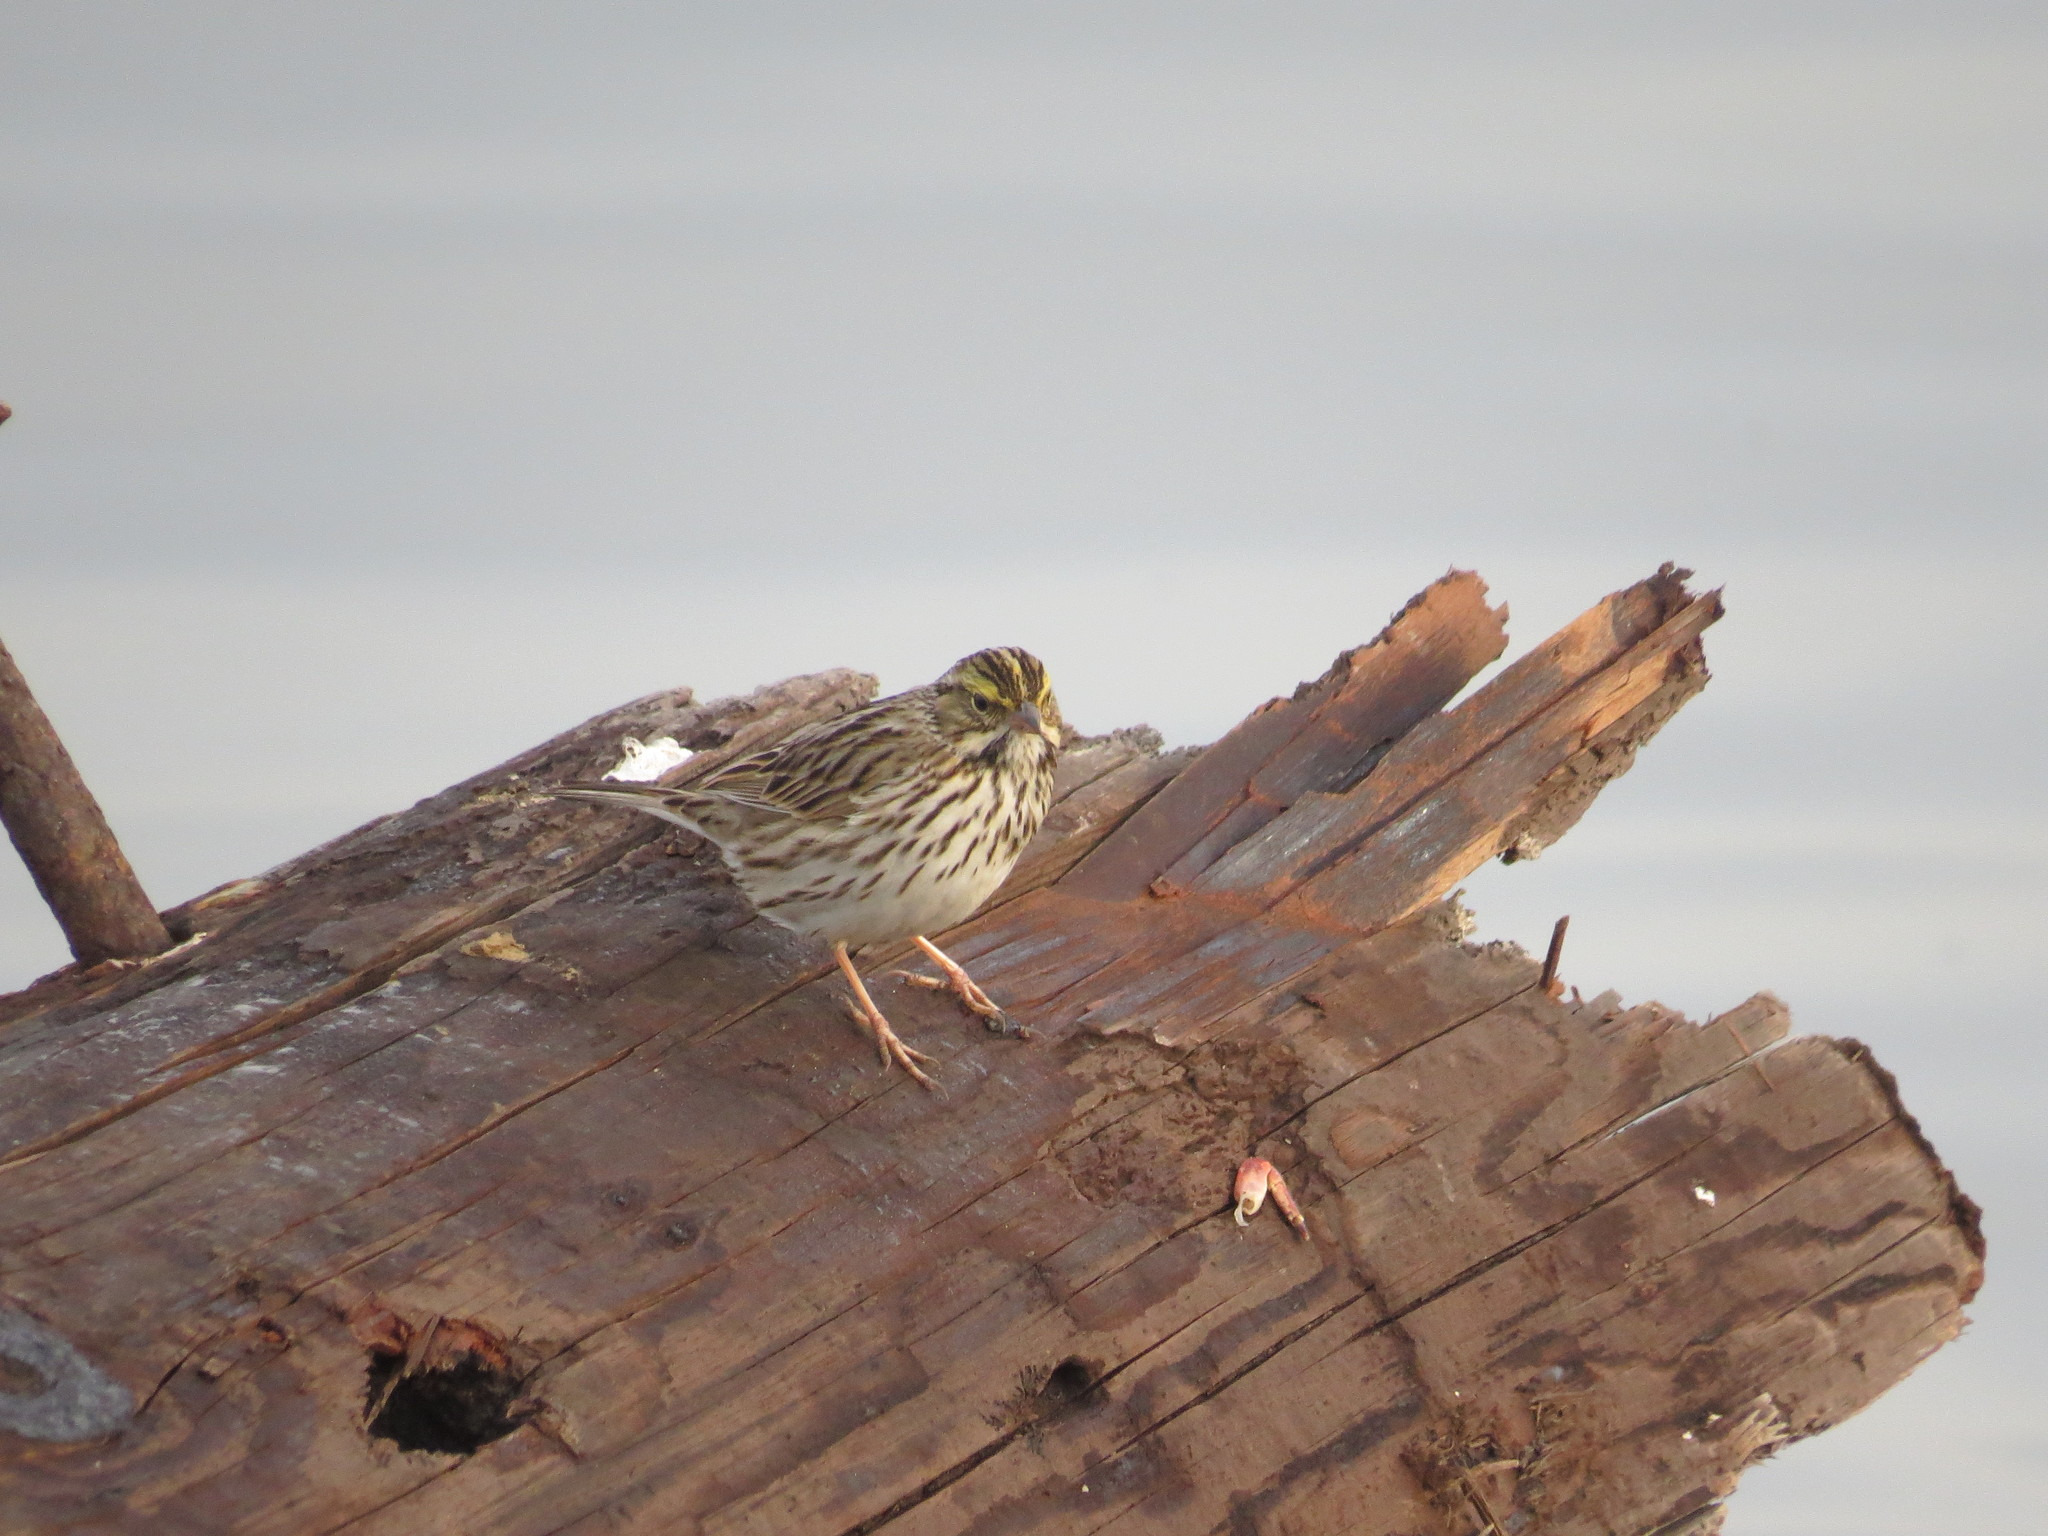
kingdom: Animalia
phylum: Chordata
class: Aves
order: Passeriformes
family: Passerellidae
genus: Passerculus
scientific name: Passerculus sandwichensis
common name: Savannah sparrow
